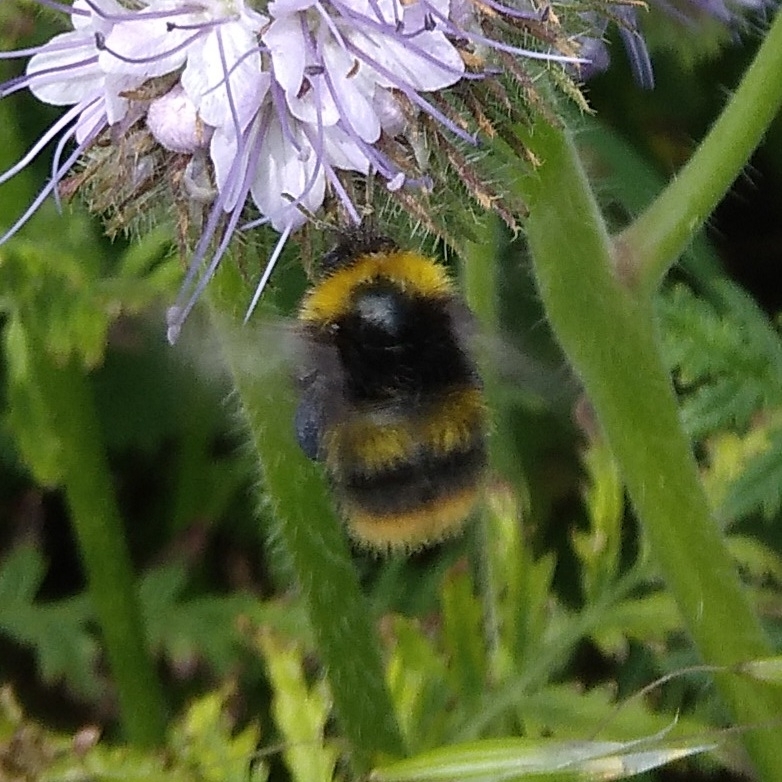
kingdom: Animalia
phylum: Arthropoda
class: Insecta
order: Hymenoptera
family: Apidae
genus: Bombus
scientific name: Bombus pratorum
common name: Early humble-bee
